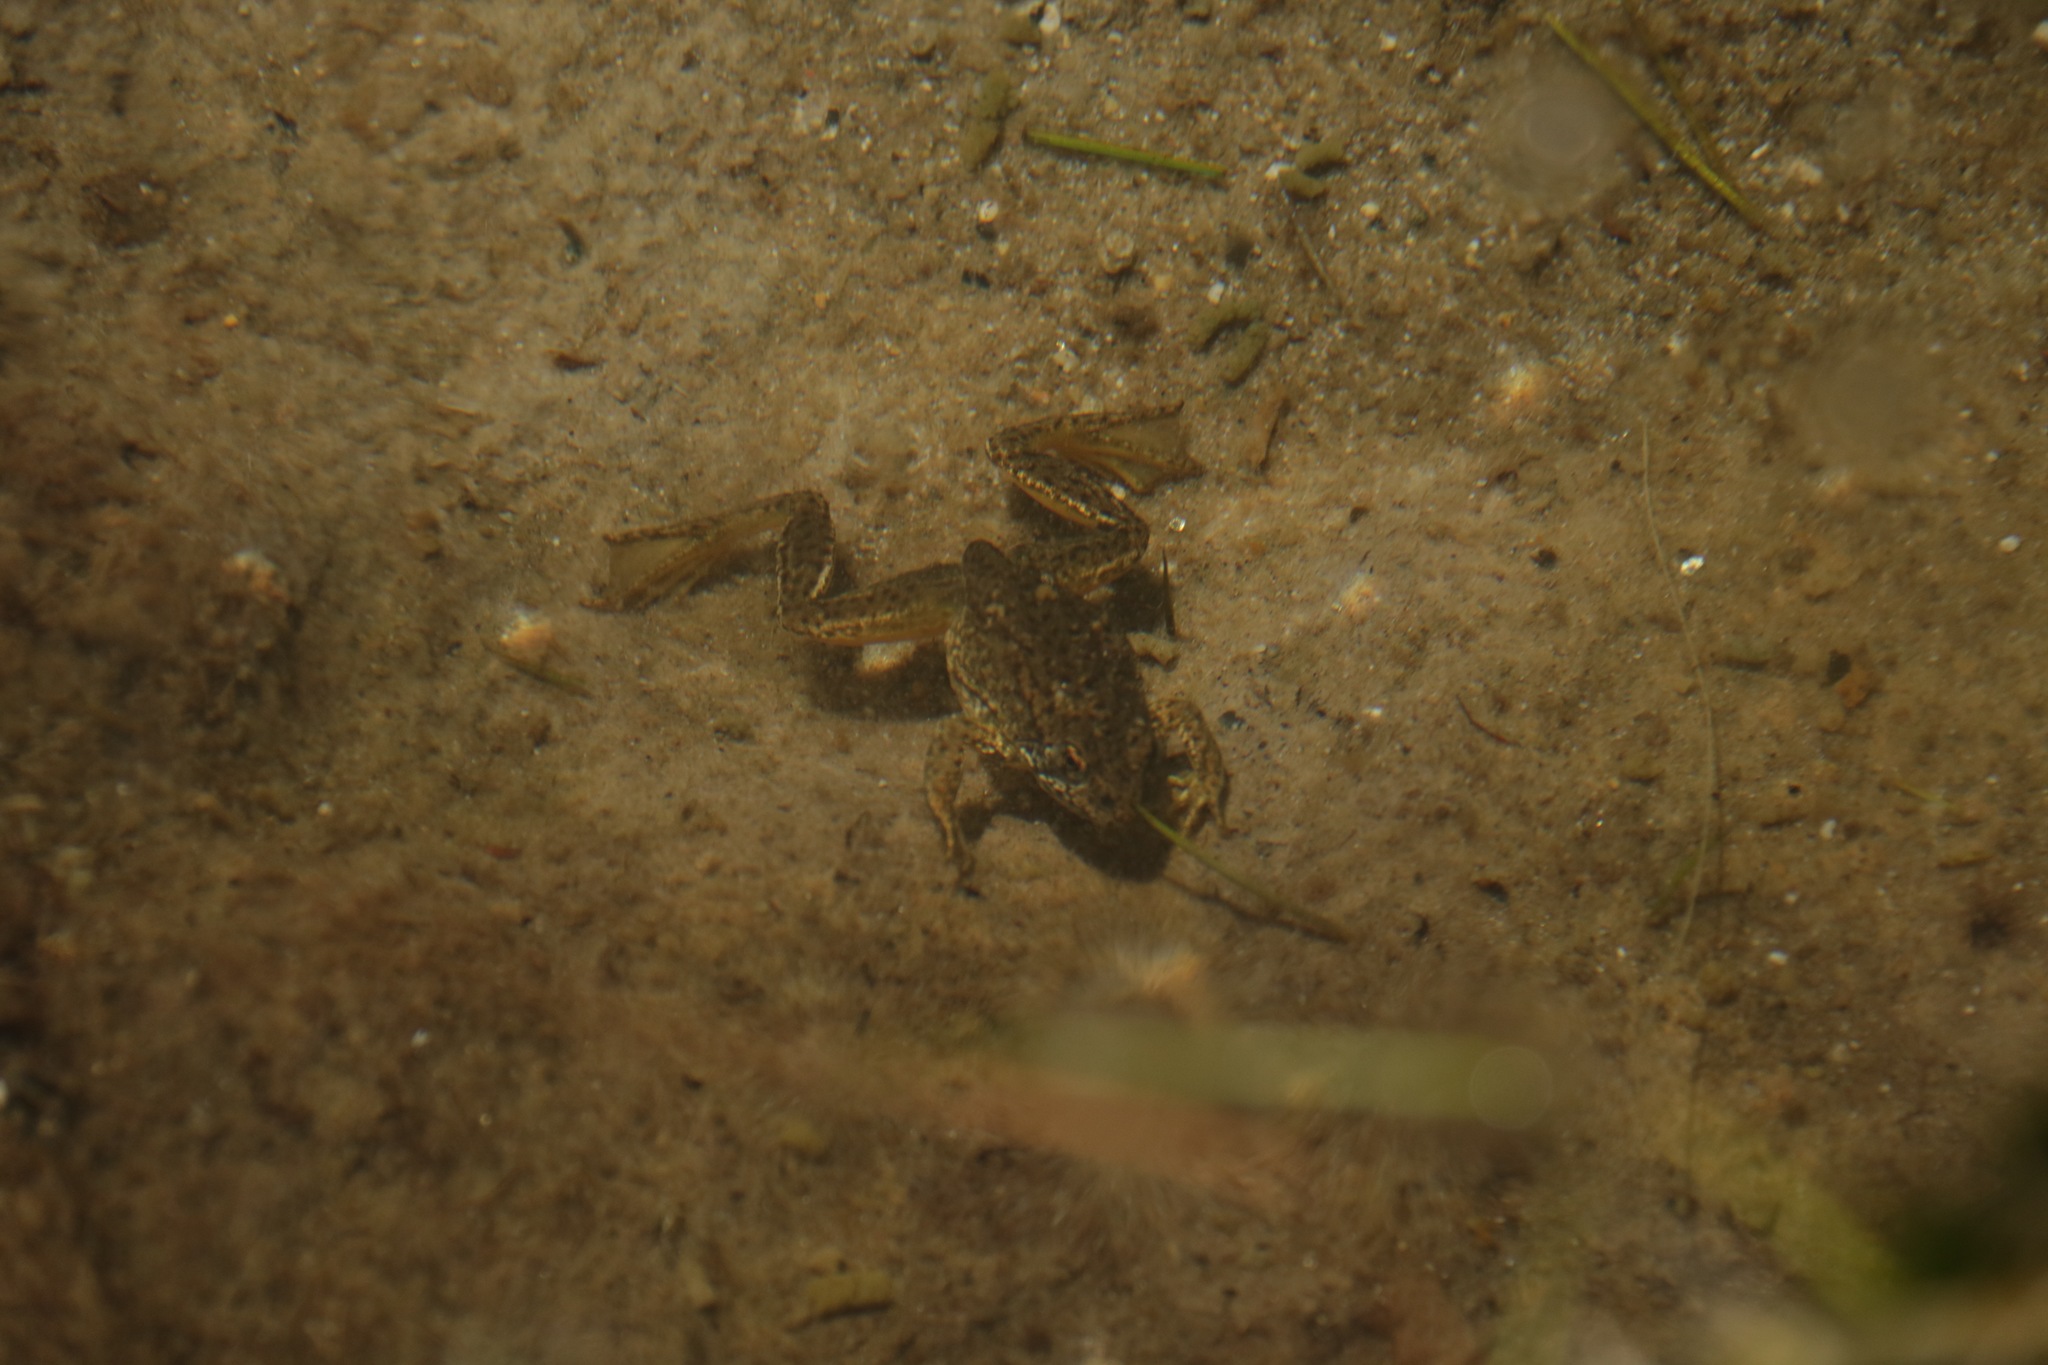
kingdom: Animalia
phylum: Chordata
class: Amphibia
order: Anura
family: Ranidae
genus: Rana
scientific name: Rana sierrae
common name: Sierra nevada yellow-legged frog
